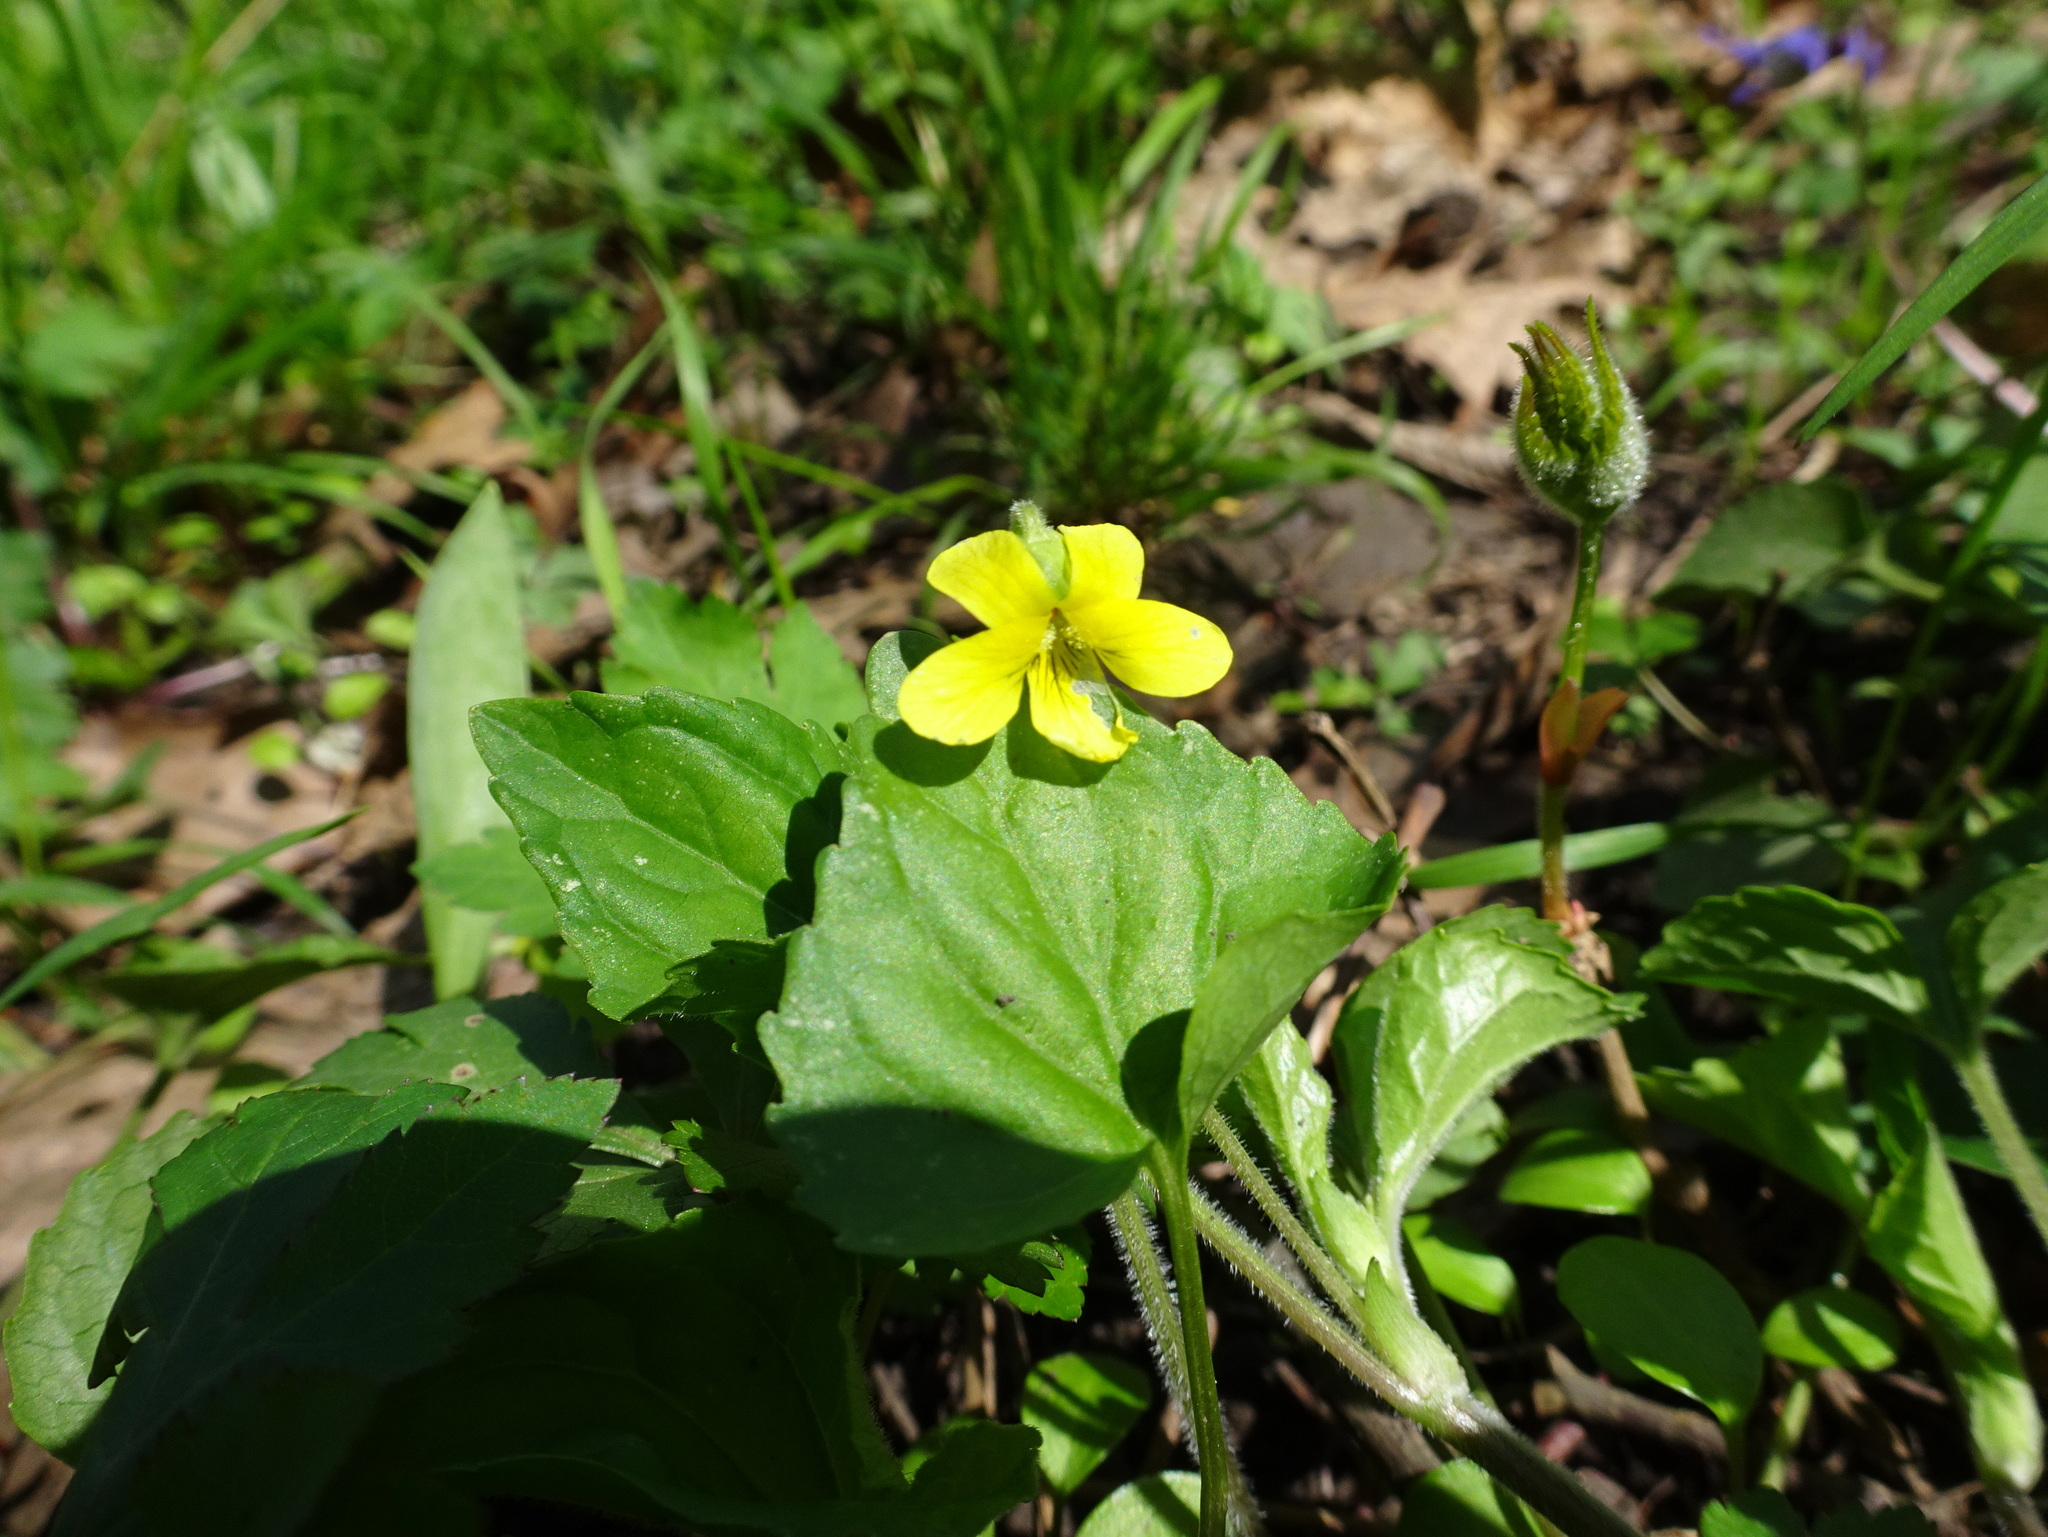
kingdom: Plantae
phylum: Tracheophyta
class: Magnoliopsida
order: Malpighiales
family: Violaceae
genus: Viola
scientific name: Viola eriocarpa
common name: Smooth yellow violet
